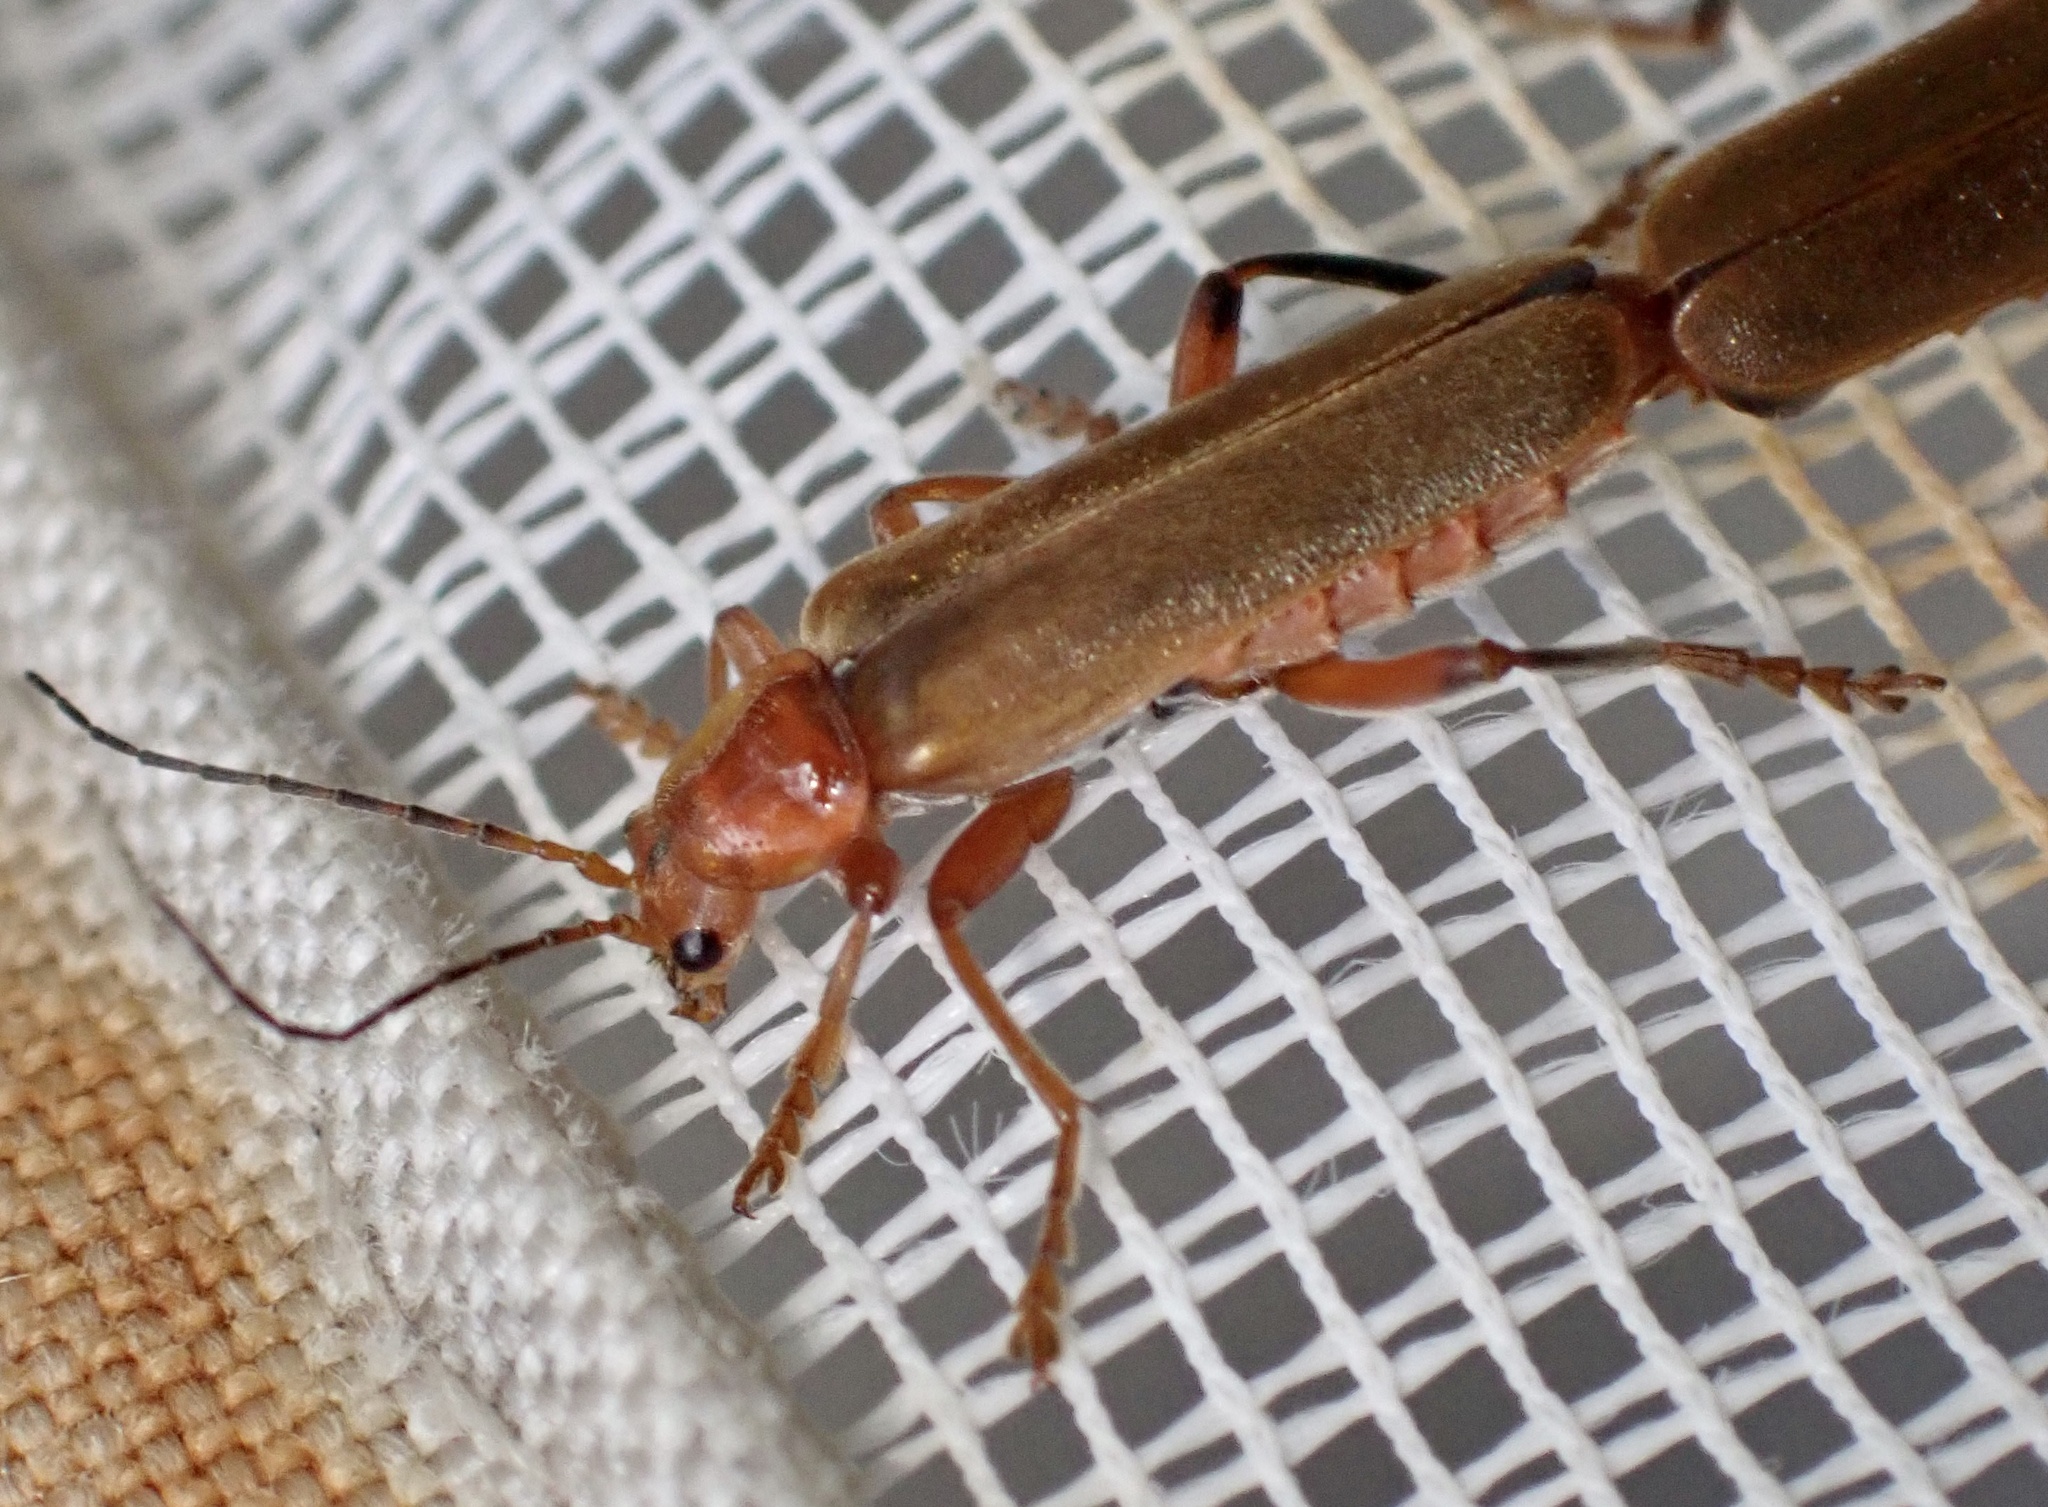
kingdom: Animalia
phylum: Arthropoda
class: Insecta
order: Coleoptera
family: Cantharidae
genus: Cantharis
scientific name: Cantharis livida
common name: Livid soldier beetle
